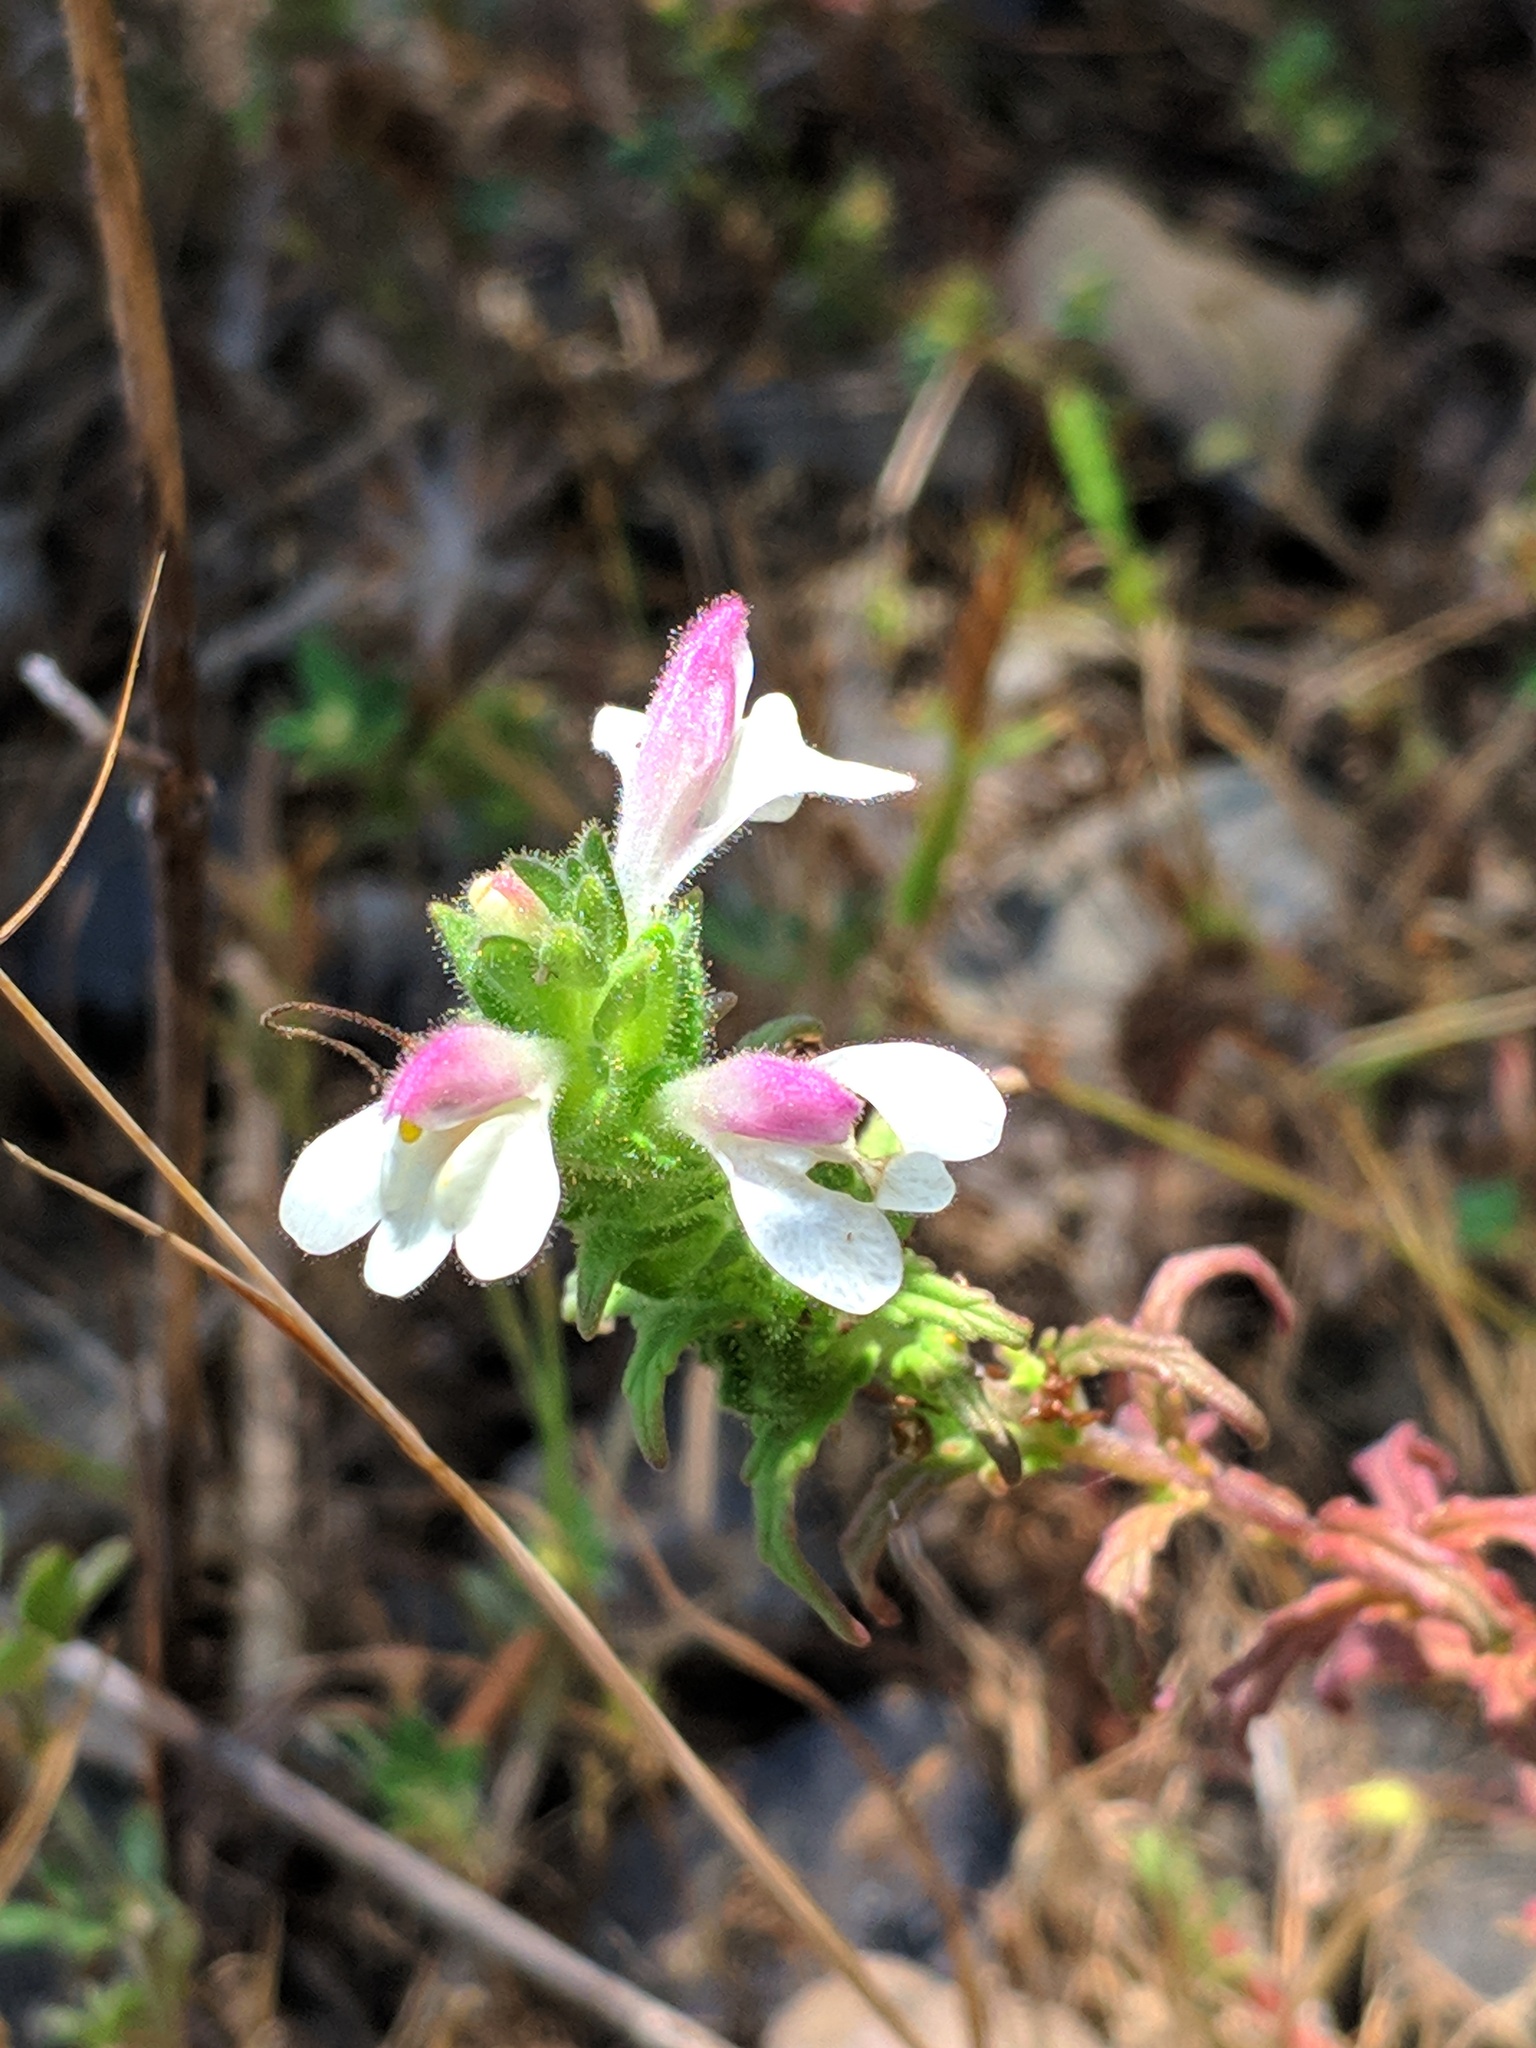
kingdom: Plantae
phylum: Tracheophyta
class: Magnoliopsida
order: Lamiales
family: Orobanchaceae
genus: Bellardia
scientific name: Bellardia trixago
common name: Mediterranean lineseed
